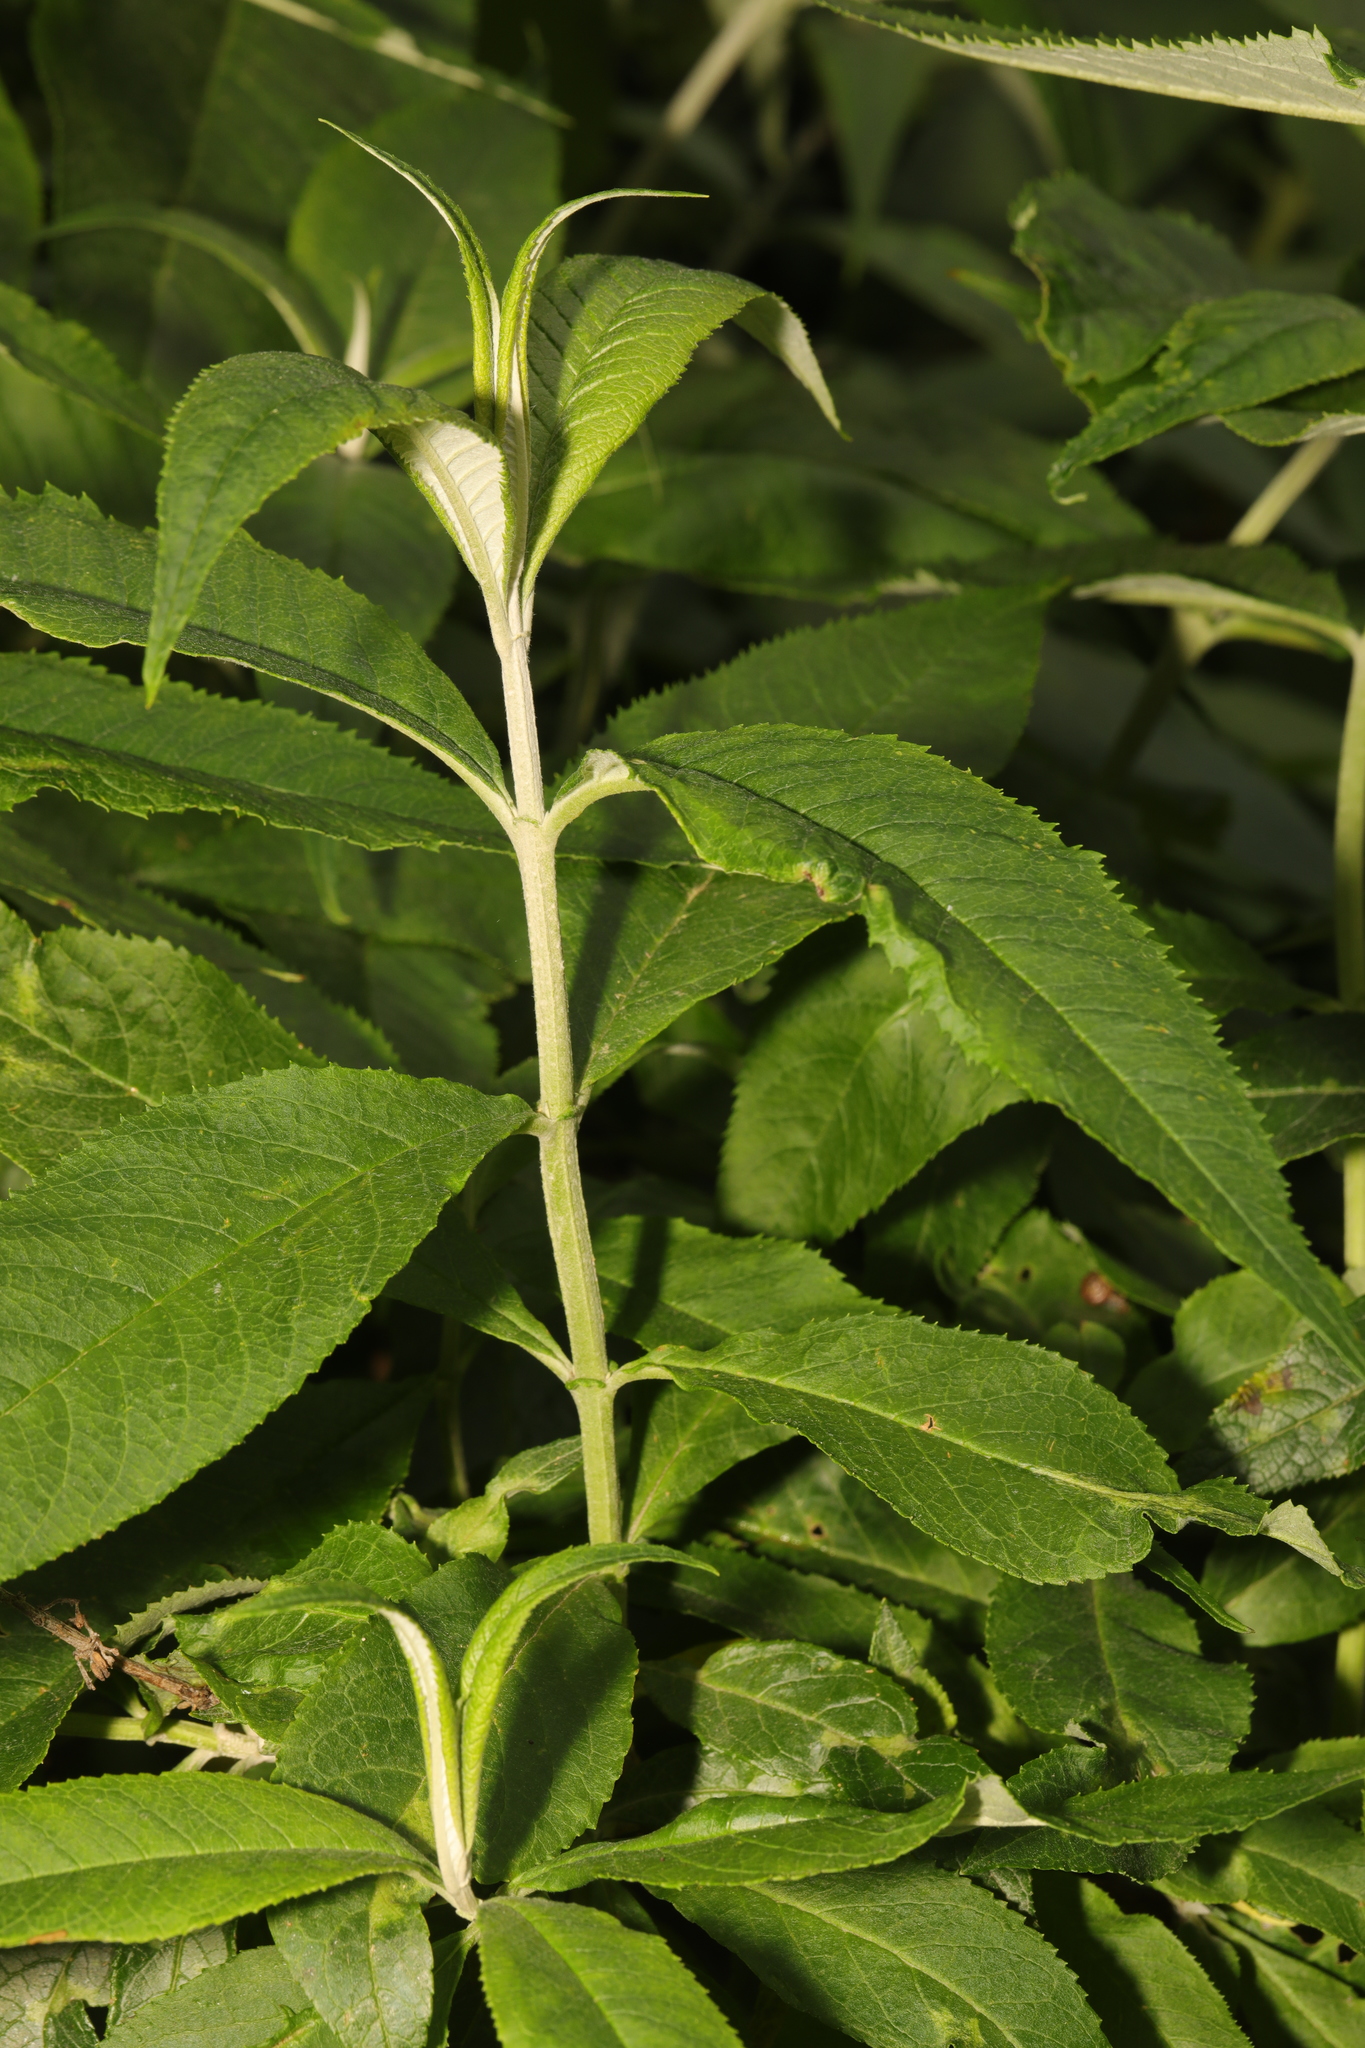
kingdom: Plantae
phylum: Tracheophyta
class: Magnoliopsida
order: Lamiales
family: Scrophulariaceae
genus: Buddleja
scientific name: Buddleja davidii
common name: Butterfly-bush
